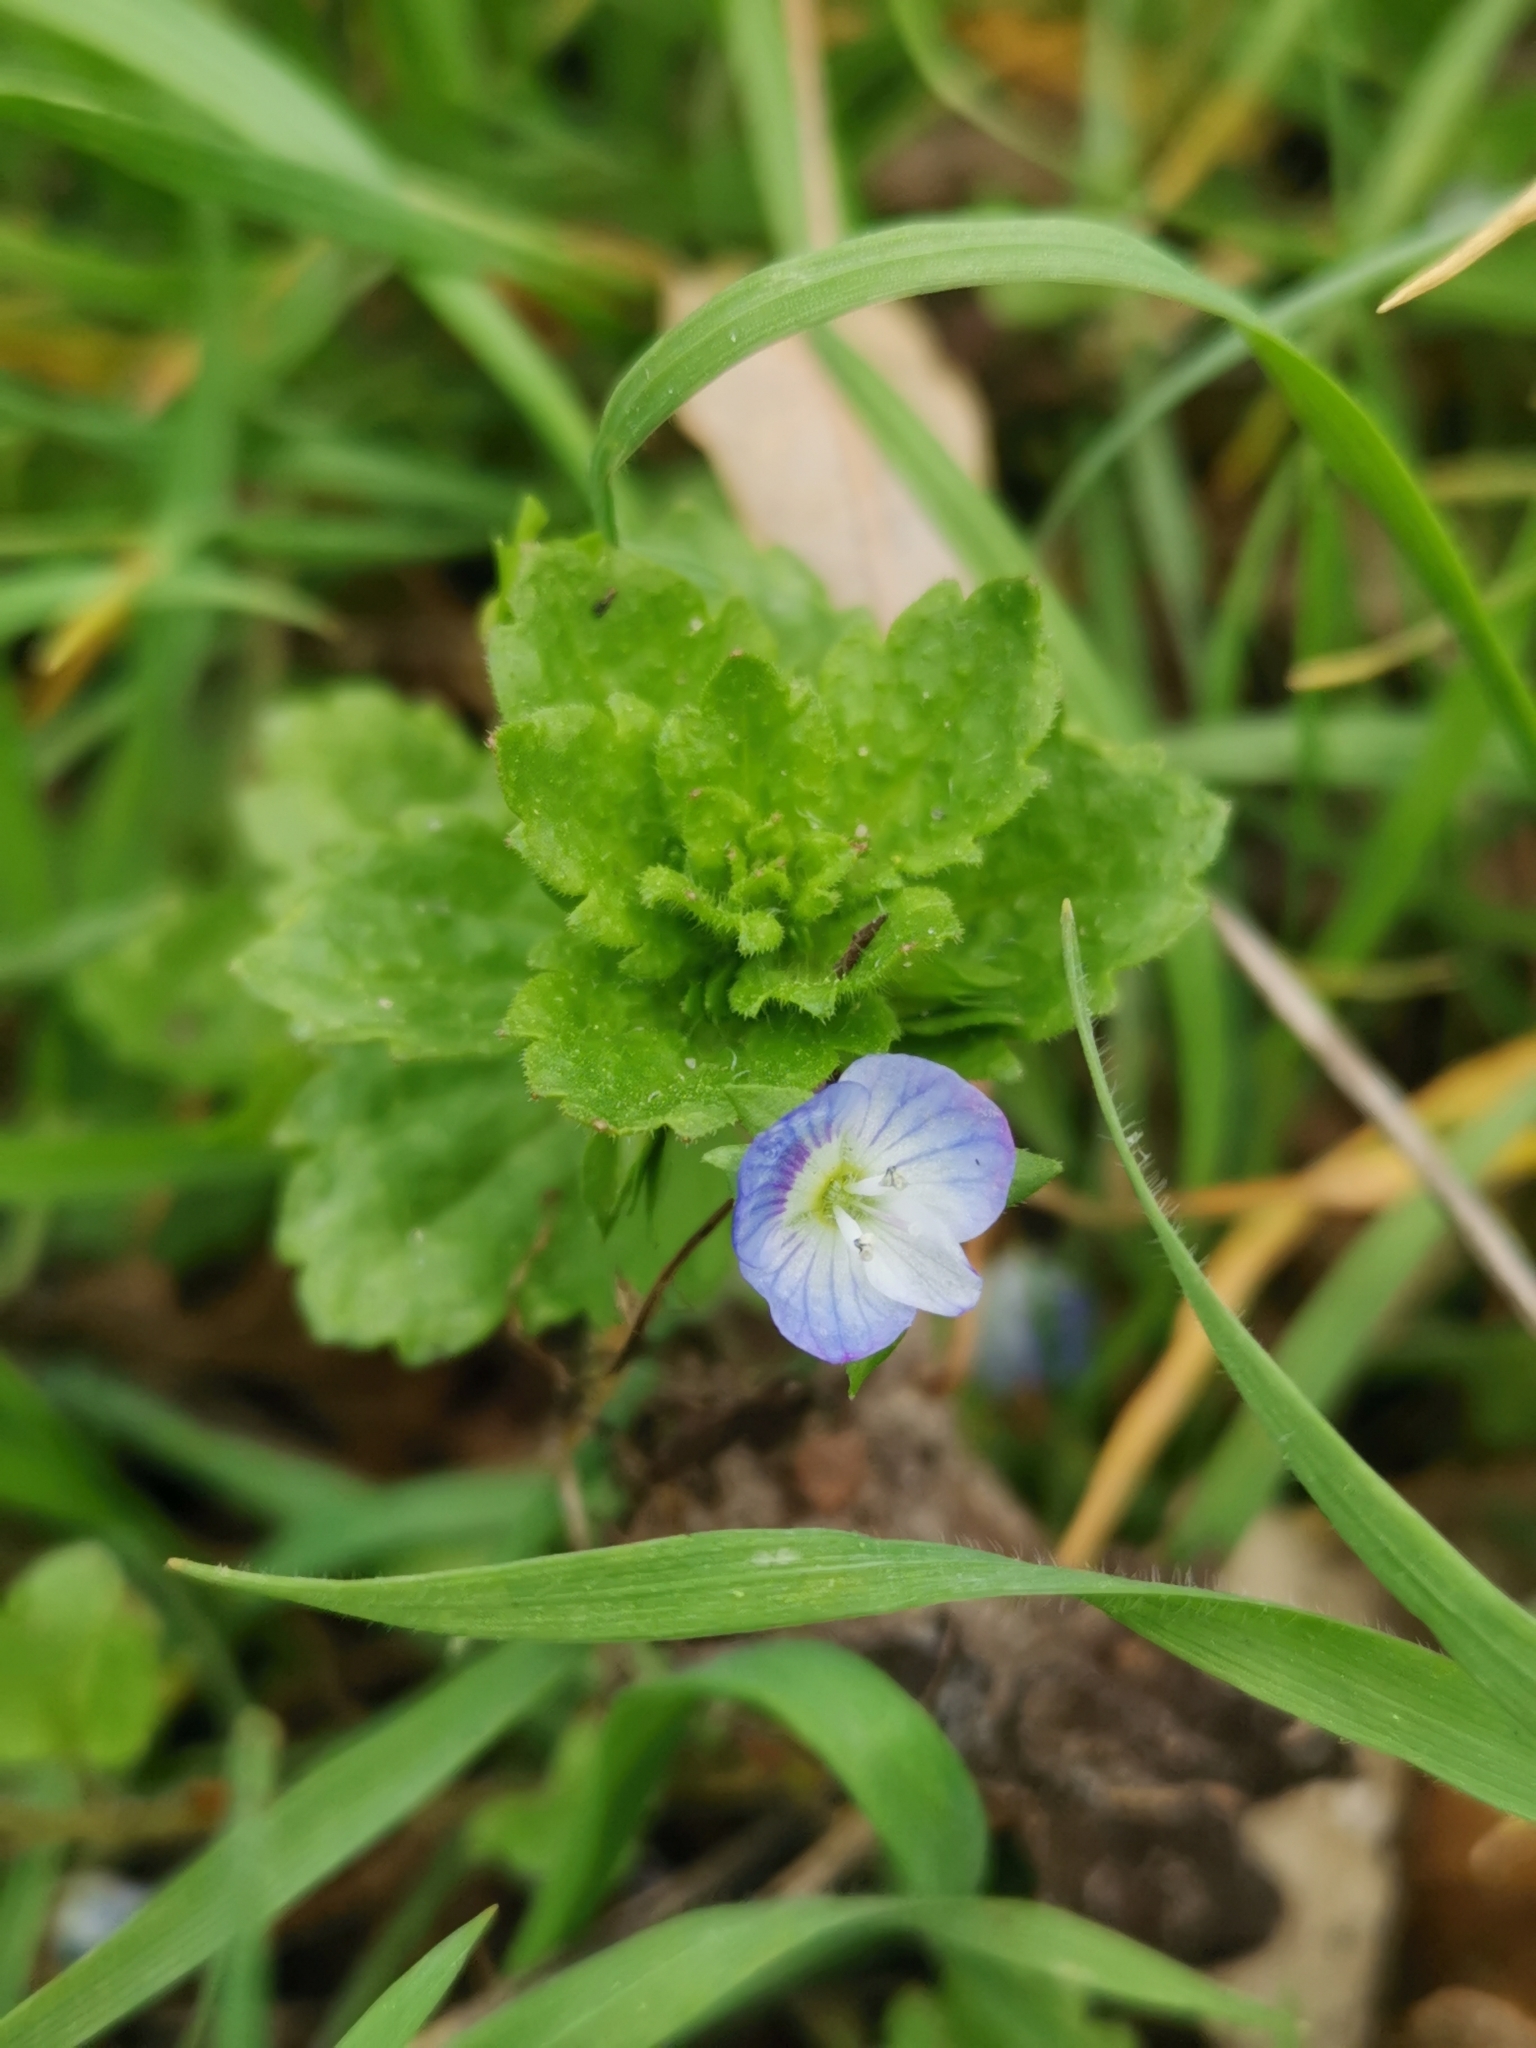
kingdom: Plantae
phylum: Tracheophyta
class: Magnoliopsida
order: Lamiales
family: Plantaginaceae
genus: Veronica
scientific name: Veronica persica
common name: Common field-speedwell
